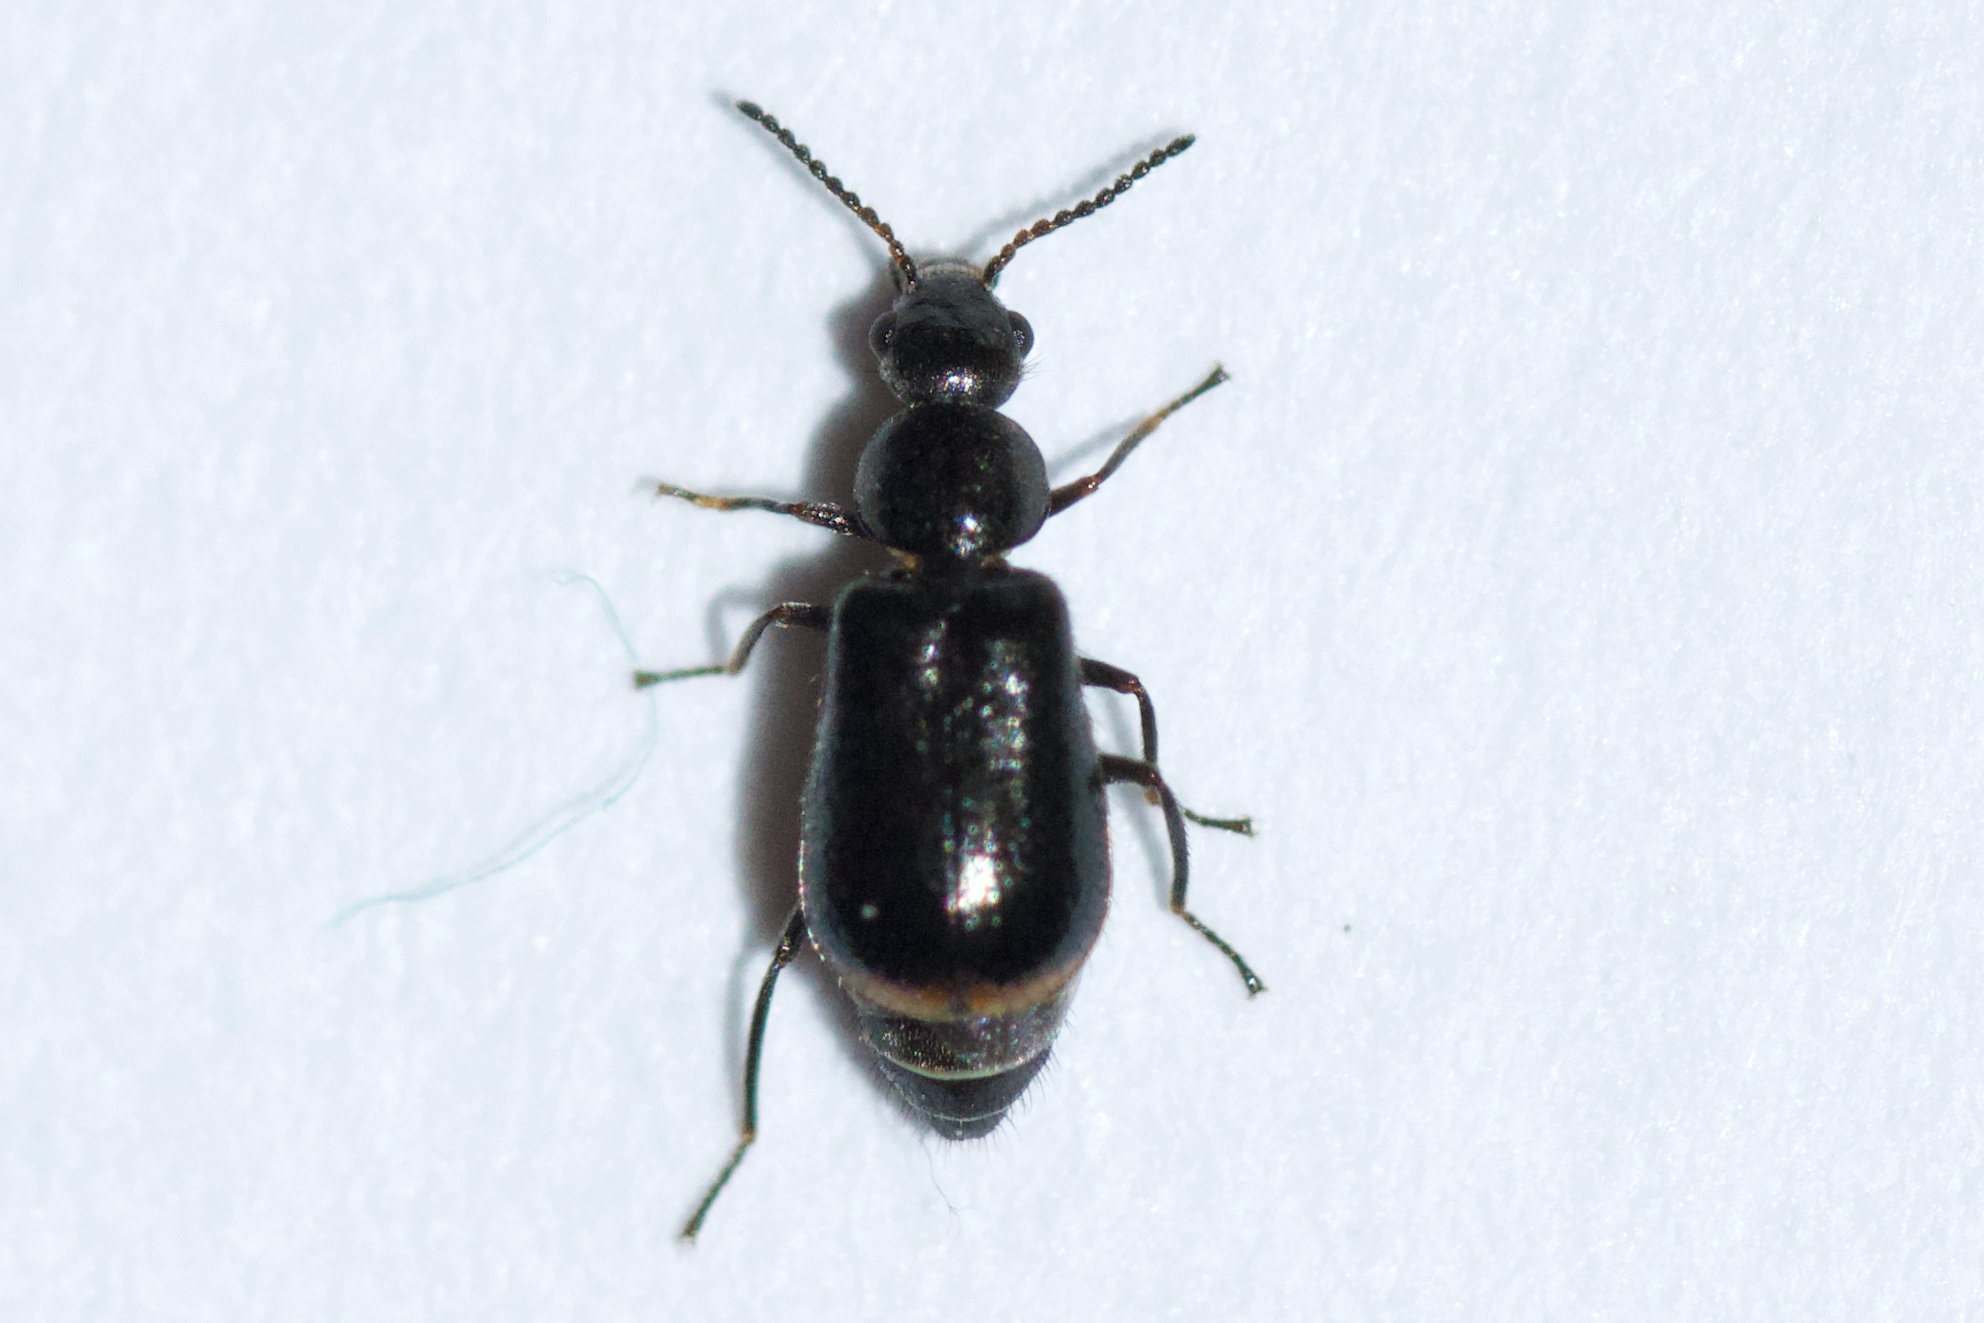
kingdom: Animalia
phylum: Arthropoda
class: Insecta
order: Coleoptera
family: Malachiidae
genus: Attalus
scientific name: Attalus terminalis
